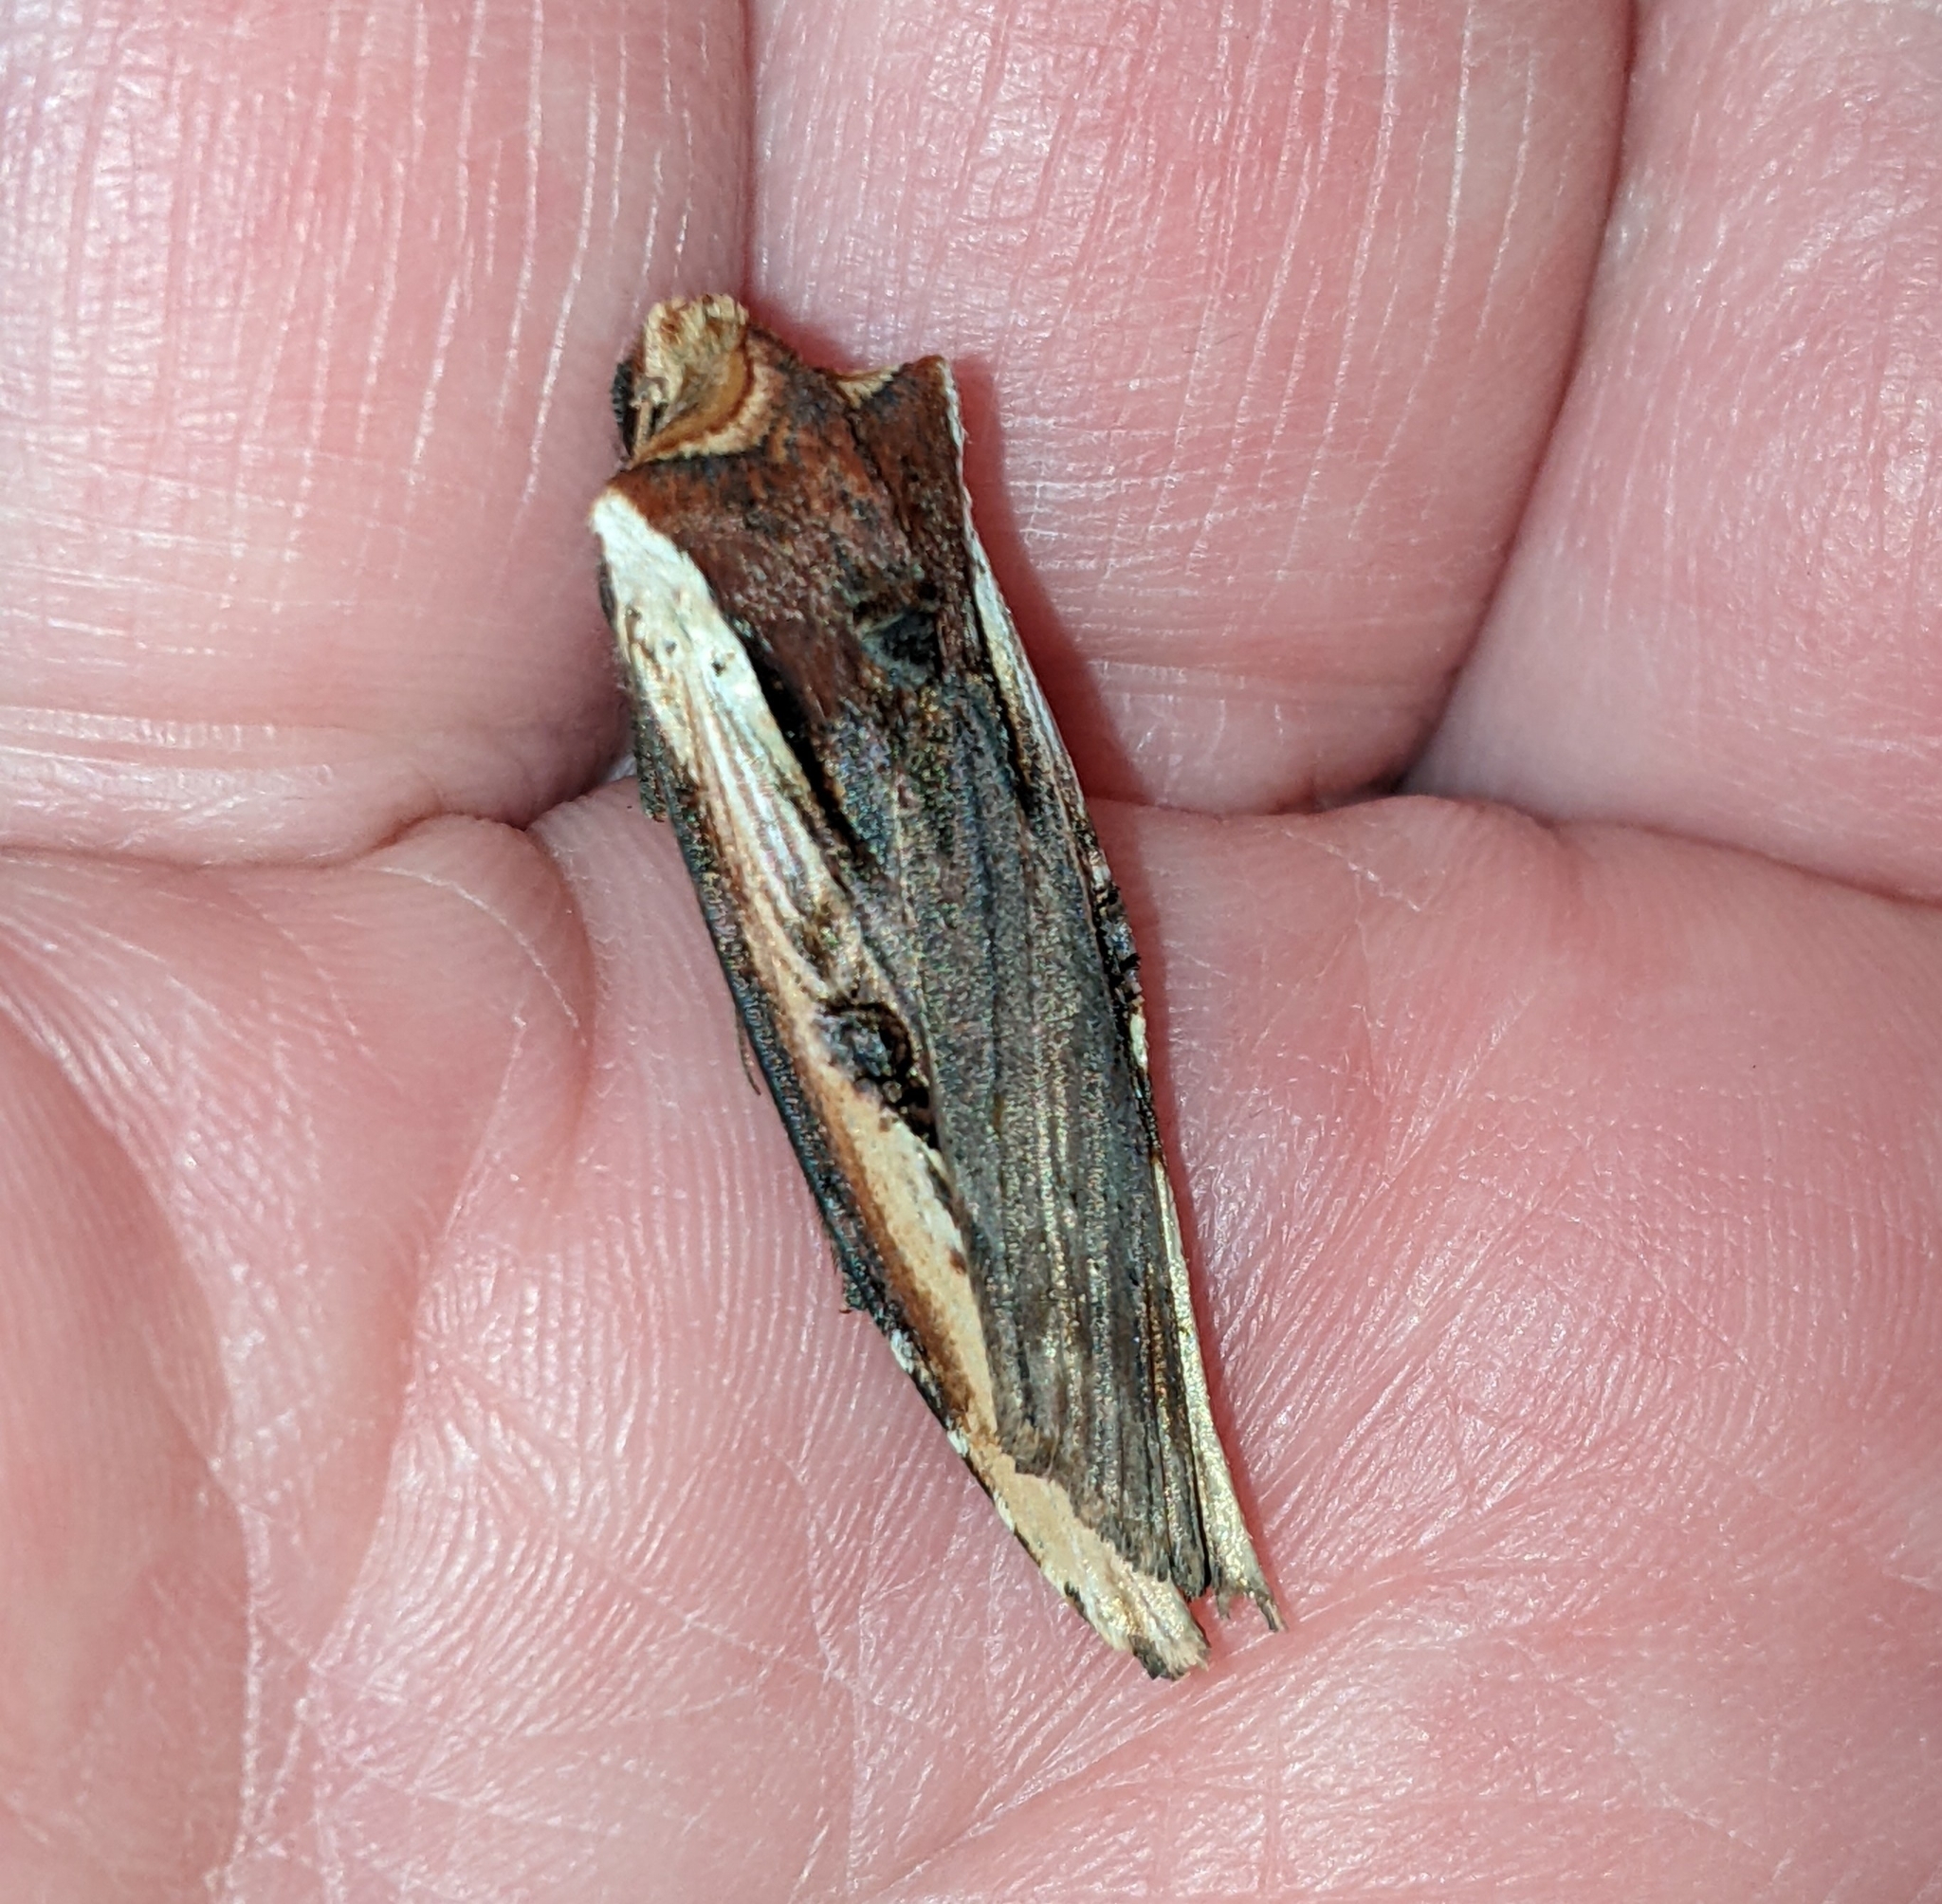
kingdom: Animalia
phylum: Arthropoda
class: Insecta
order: Lepidoptera
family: Noctuidae
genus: Xylena
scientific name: Xylena curvimacula
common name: Dot-and-dash swordgrass moth
